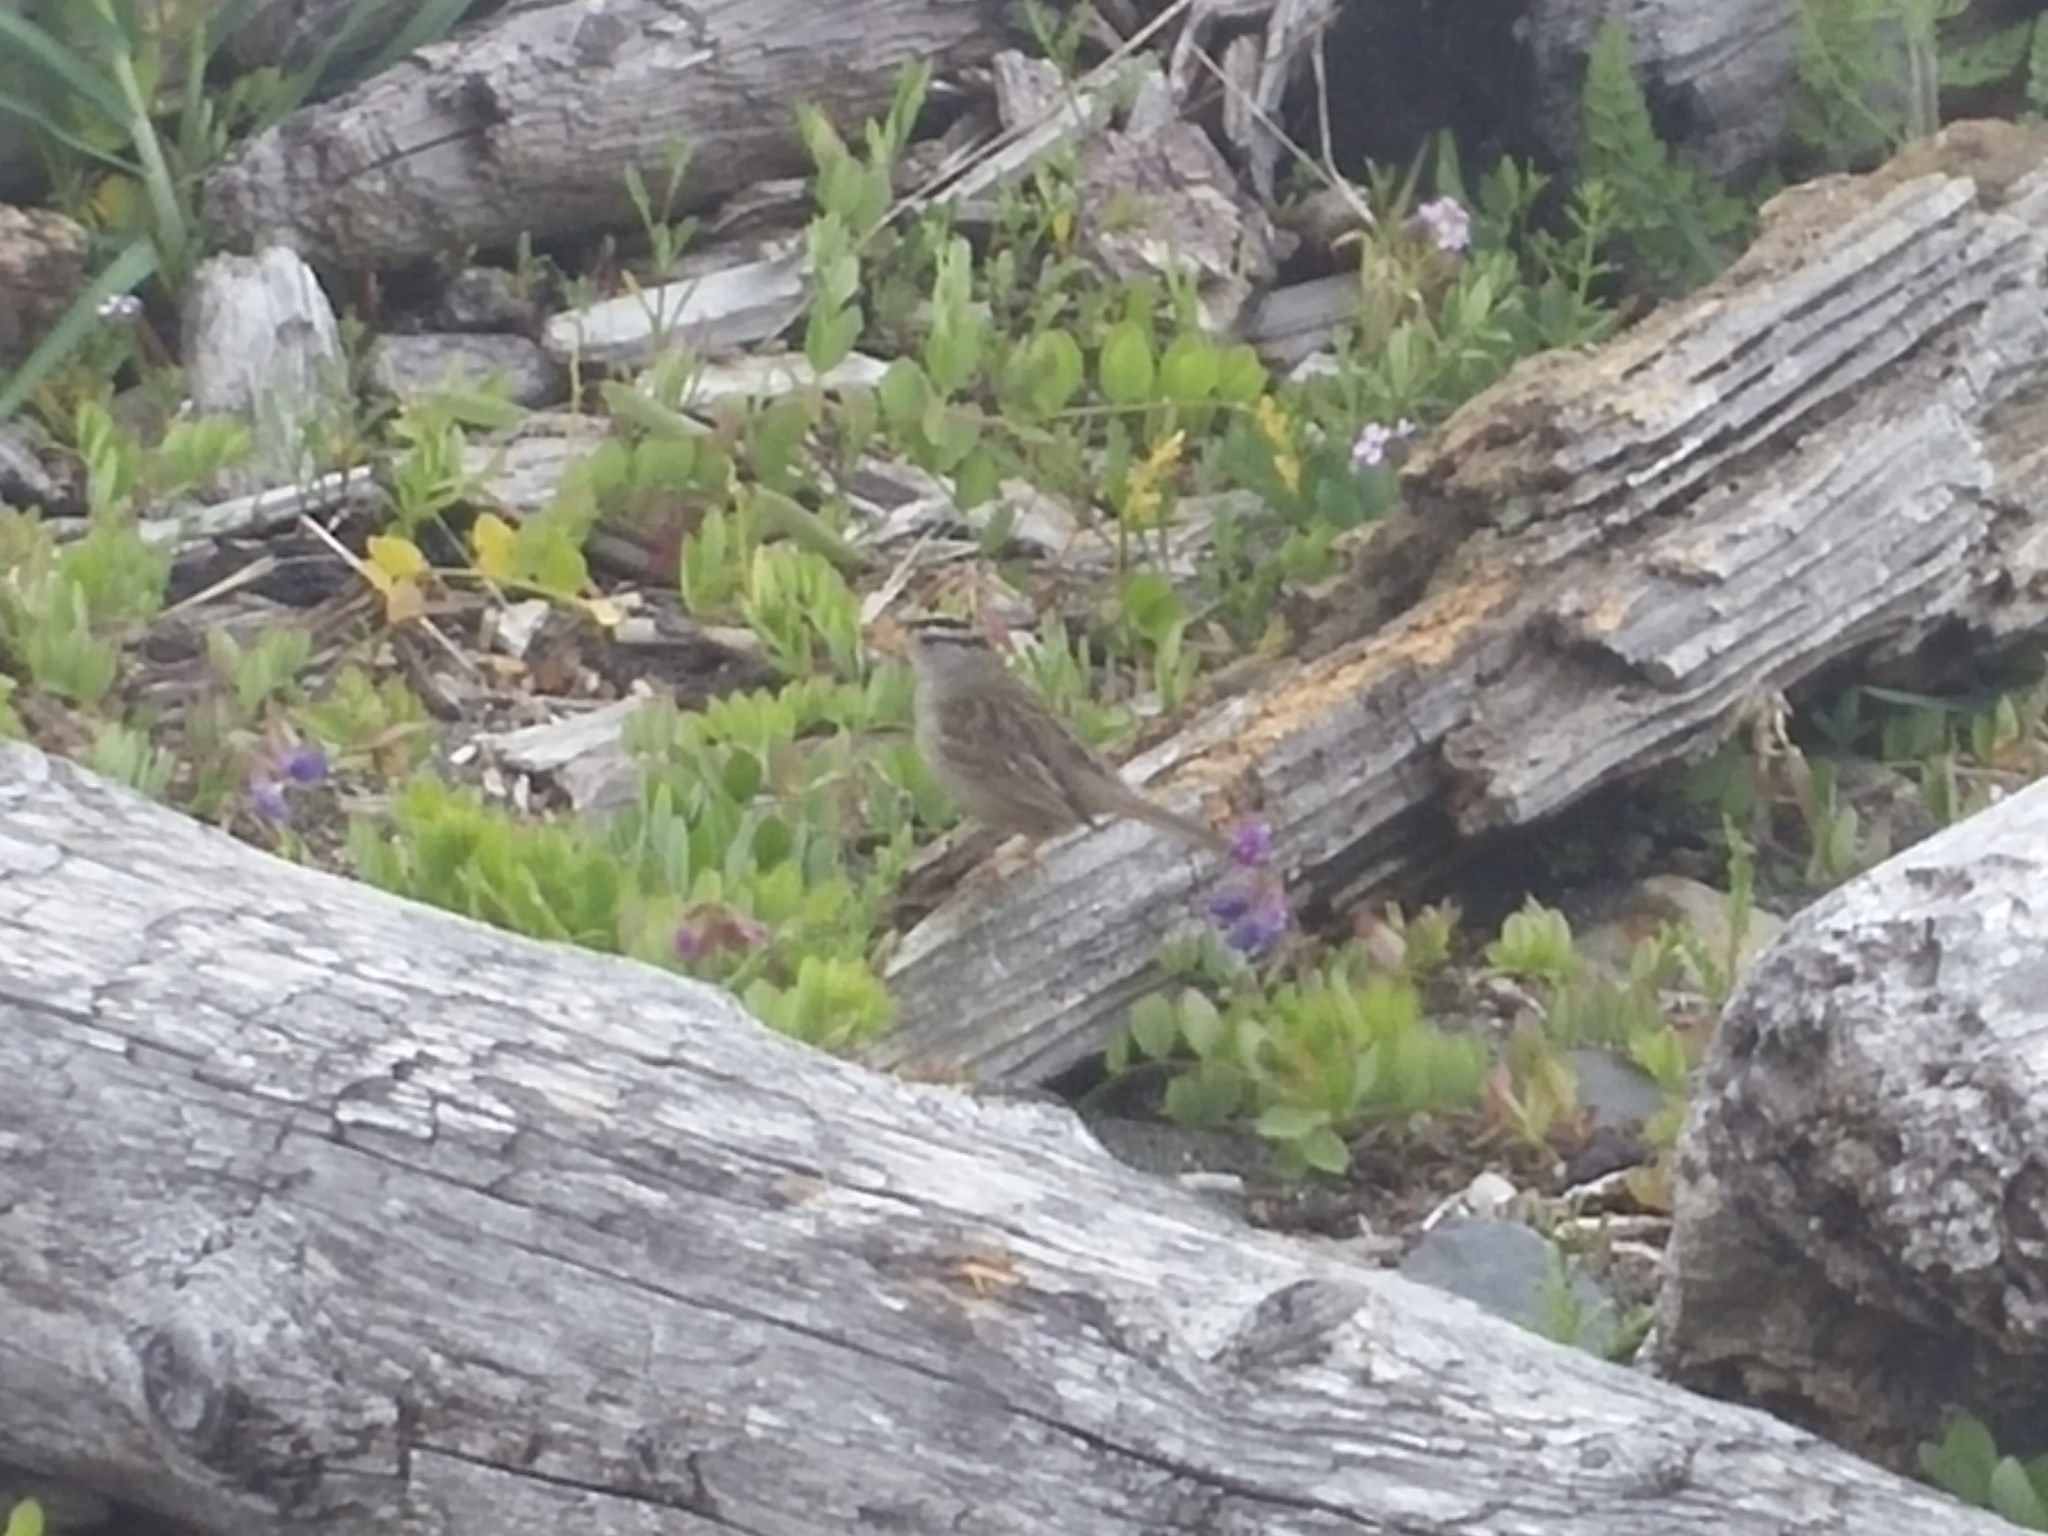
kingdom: Animalia
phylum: Chordata
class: Aves
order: Passeriformes
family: Passerellidae
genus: Zonotrichia
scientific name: Zonotrichia leucophrys
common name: White-crowned sparrow
